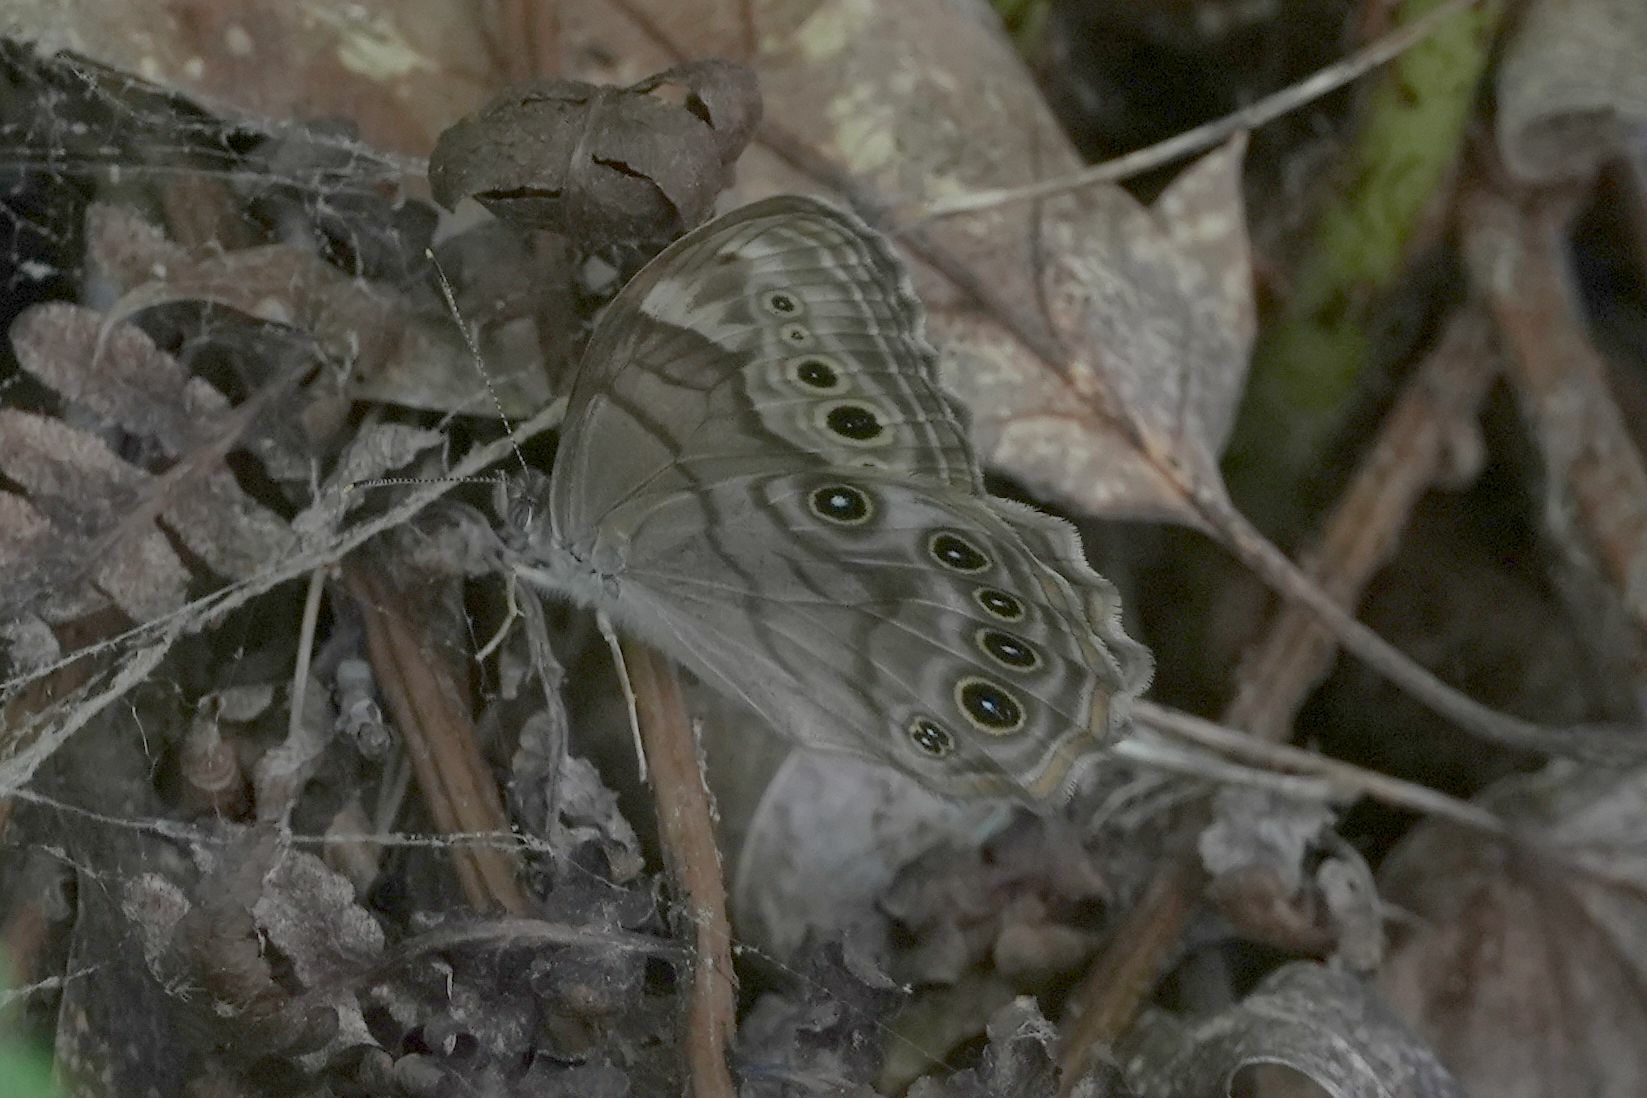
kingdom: Animalia
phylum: Arthropoda
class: Insecta
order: Lepidoptera
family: Nymphalidae
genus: Lethe
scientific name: Lethe anthedon
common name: Northern pearly-eye
